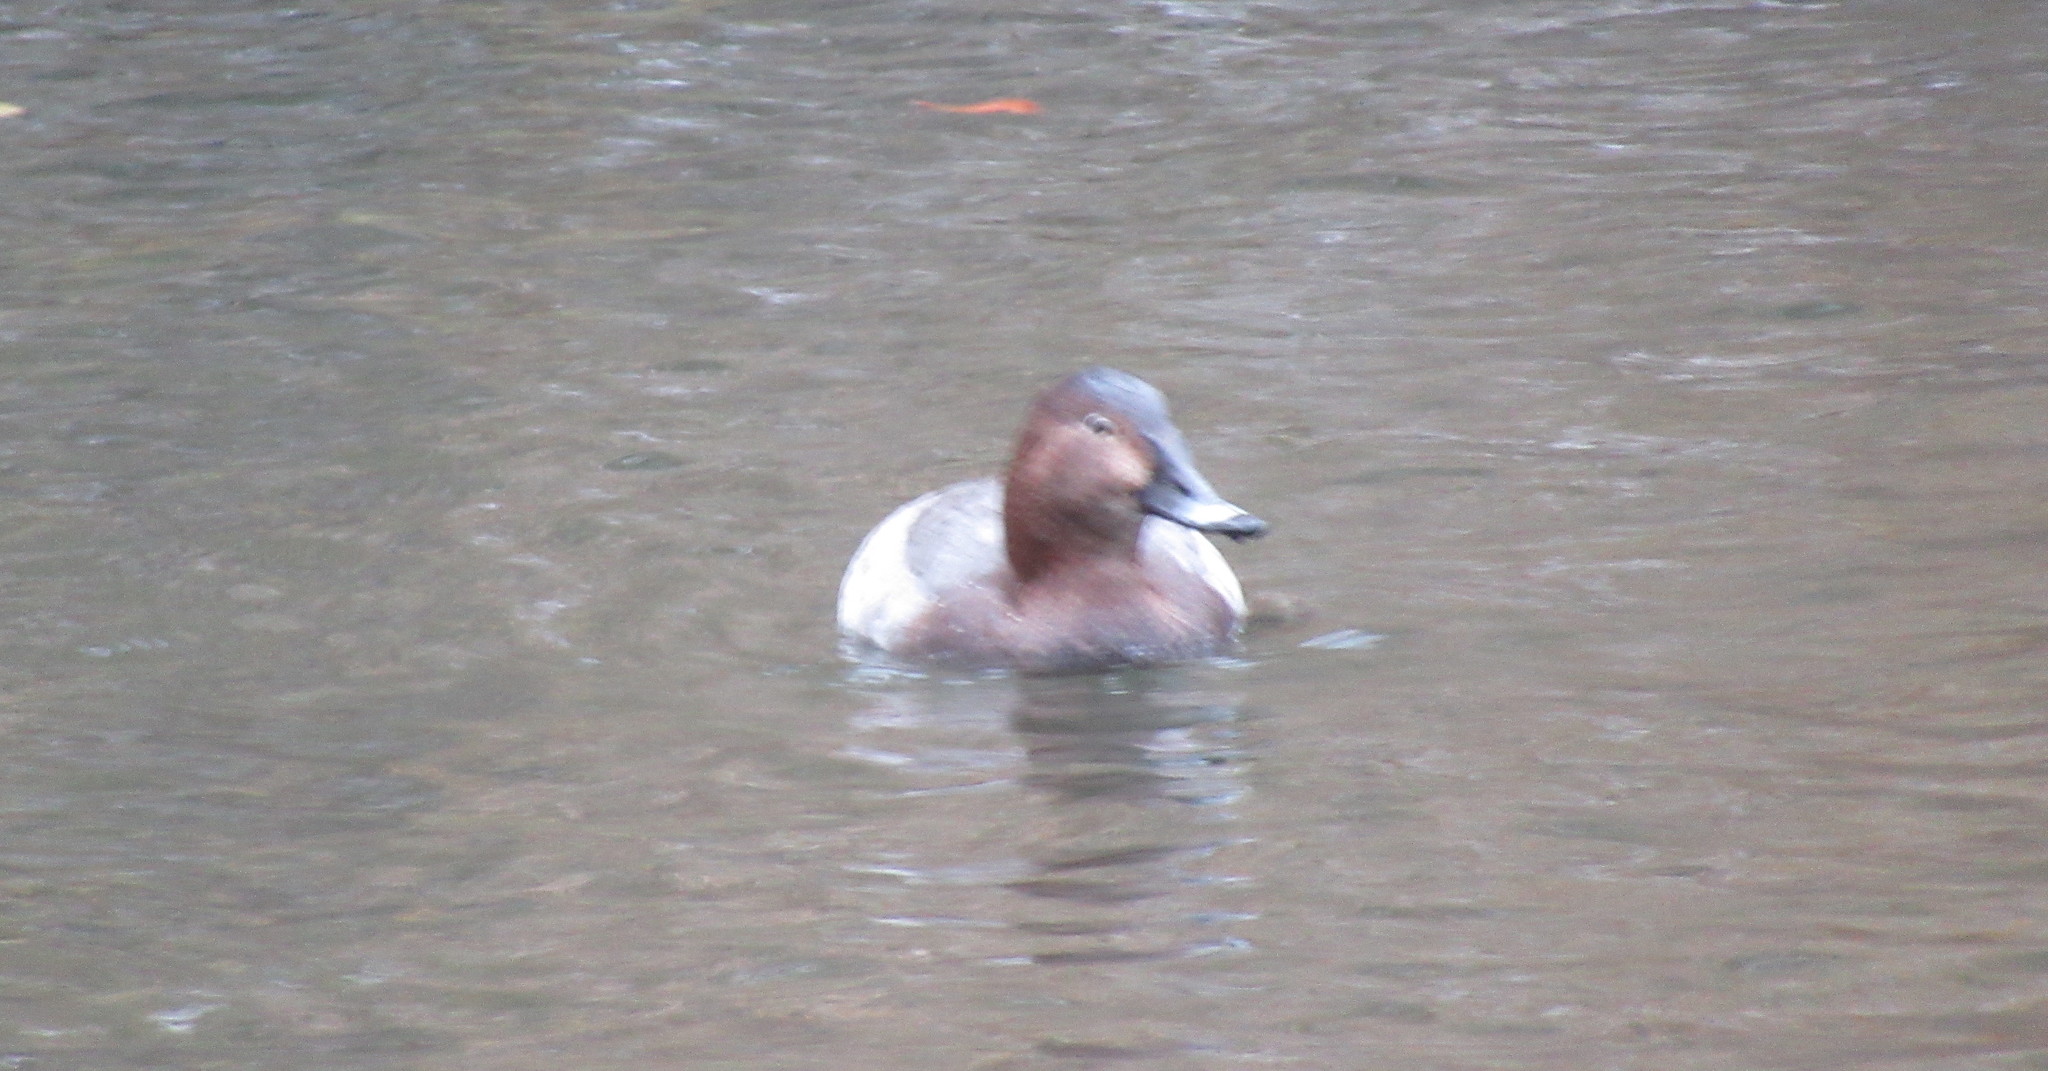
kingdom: Animalia
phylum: Chordata
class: Aves
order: Anseriformes
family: Anatidae
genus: Aythya
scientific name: Aythya ferina
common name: Common pochard
